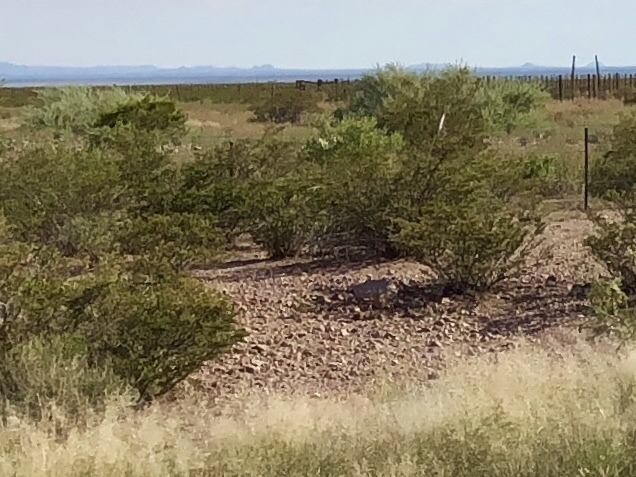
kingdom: Plantae
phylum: Tracheophyta
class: Magnoliopsida
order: Zygophyllales
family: Zygophyllaceae
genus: Larrea
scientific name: Larrea tridentata
